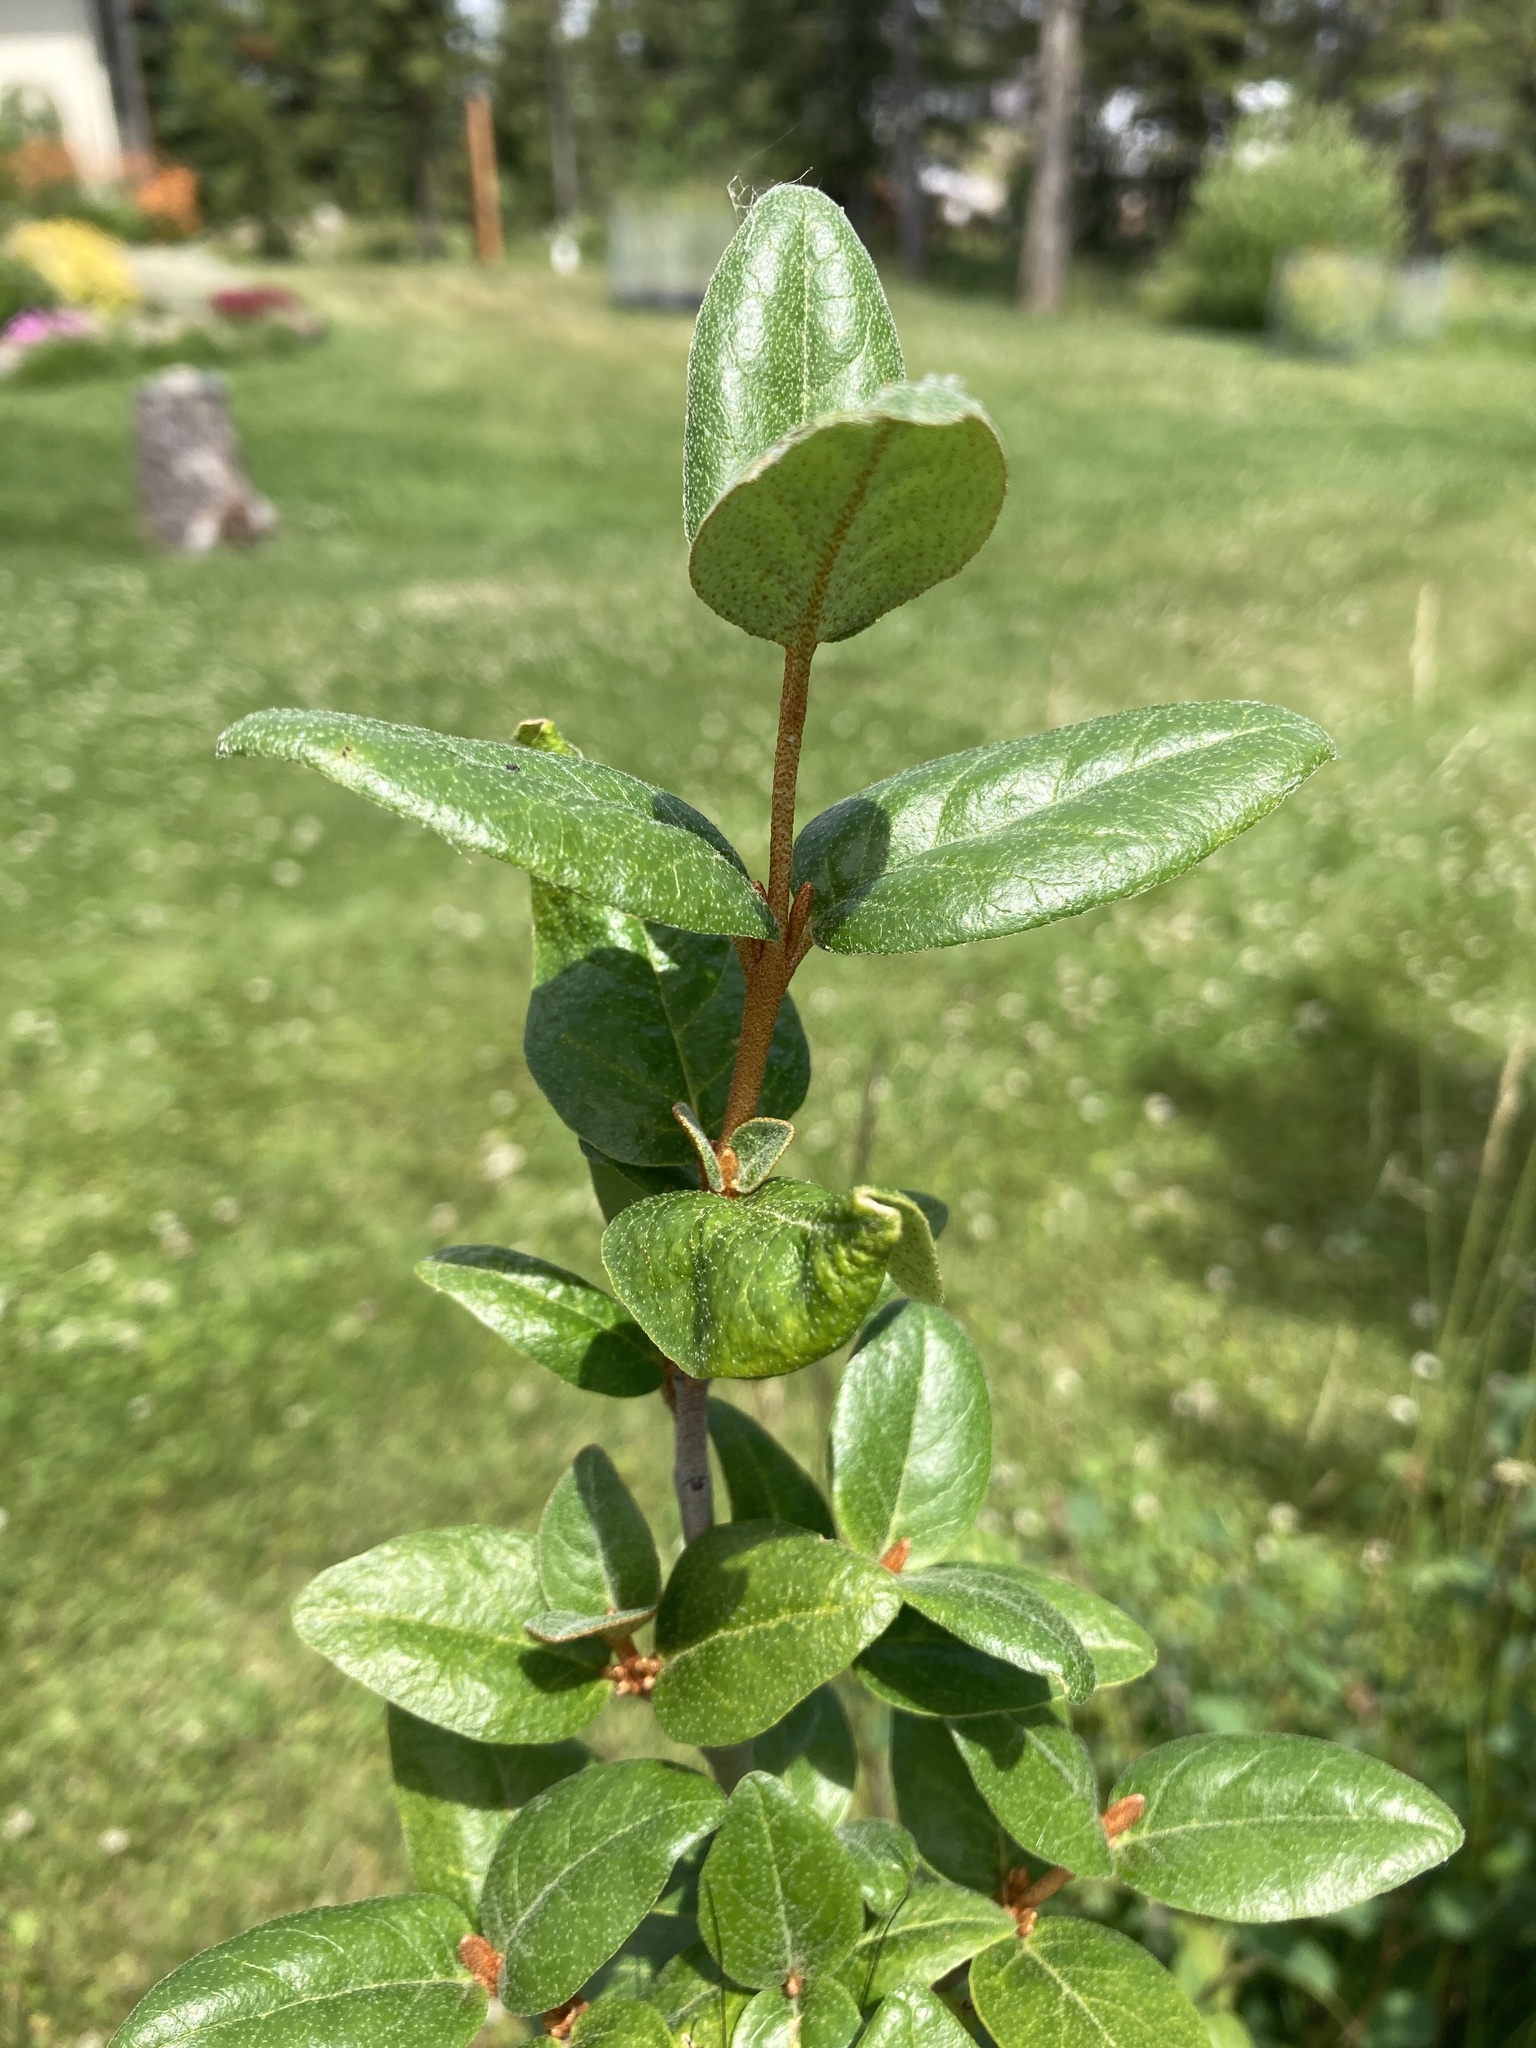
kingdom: Plantae
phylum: Tracheophyta
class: Magnoliopsida
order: Rosales
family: Elaeagnaceae
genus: Shepherdia
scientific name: Shepherdia canadensis
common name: Soapberry
